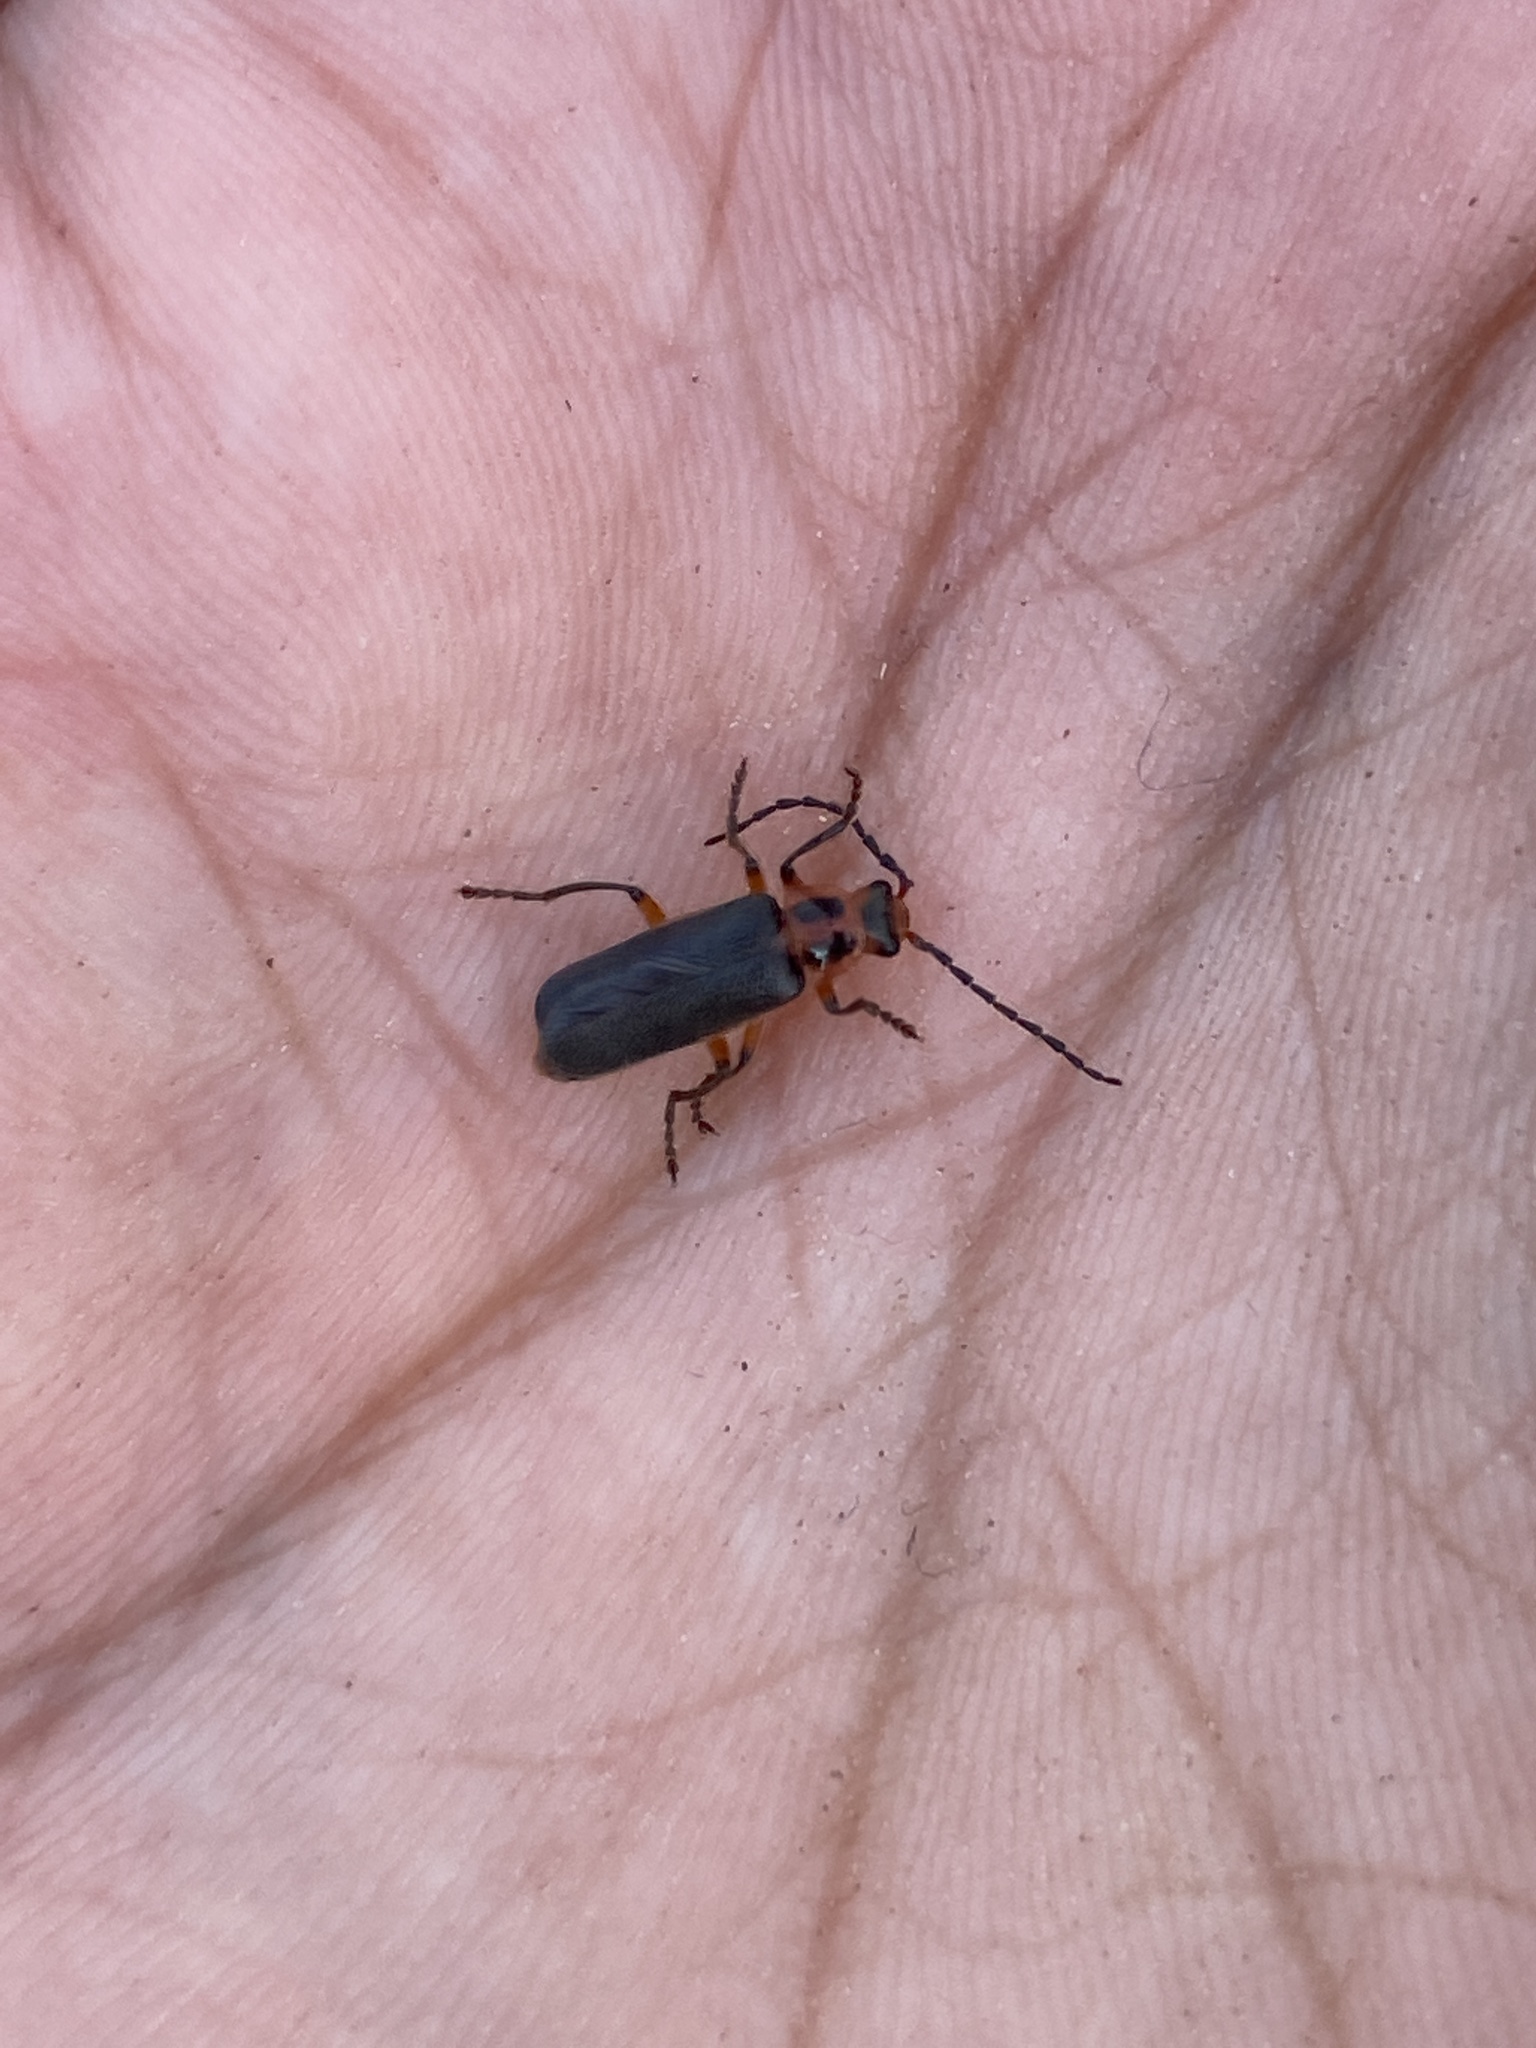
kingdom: Animalia
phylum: Arthropoda
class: Insecta
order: Coleoptera
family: Cantharidae
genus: Atalantycha
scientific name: Atalantycha bilineata
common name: Two-lined leatherwing
